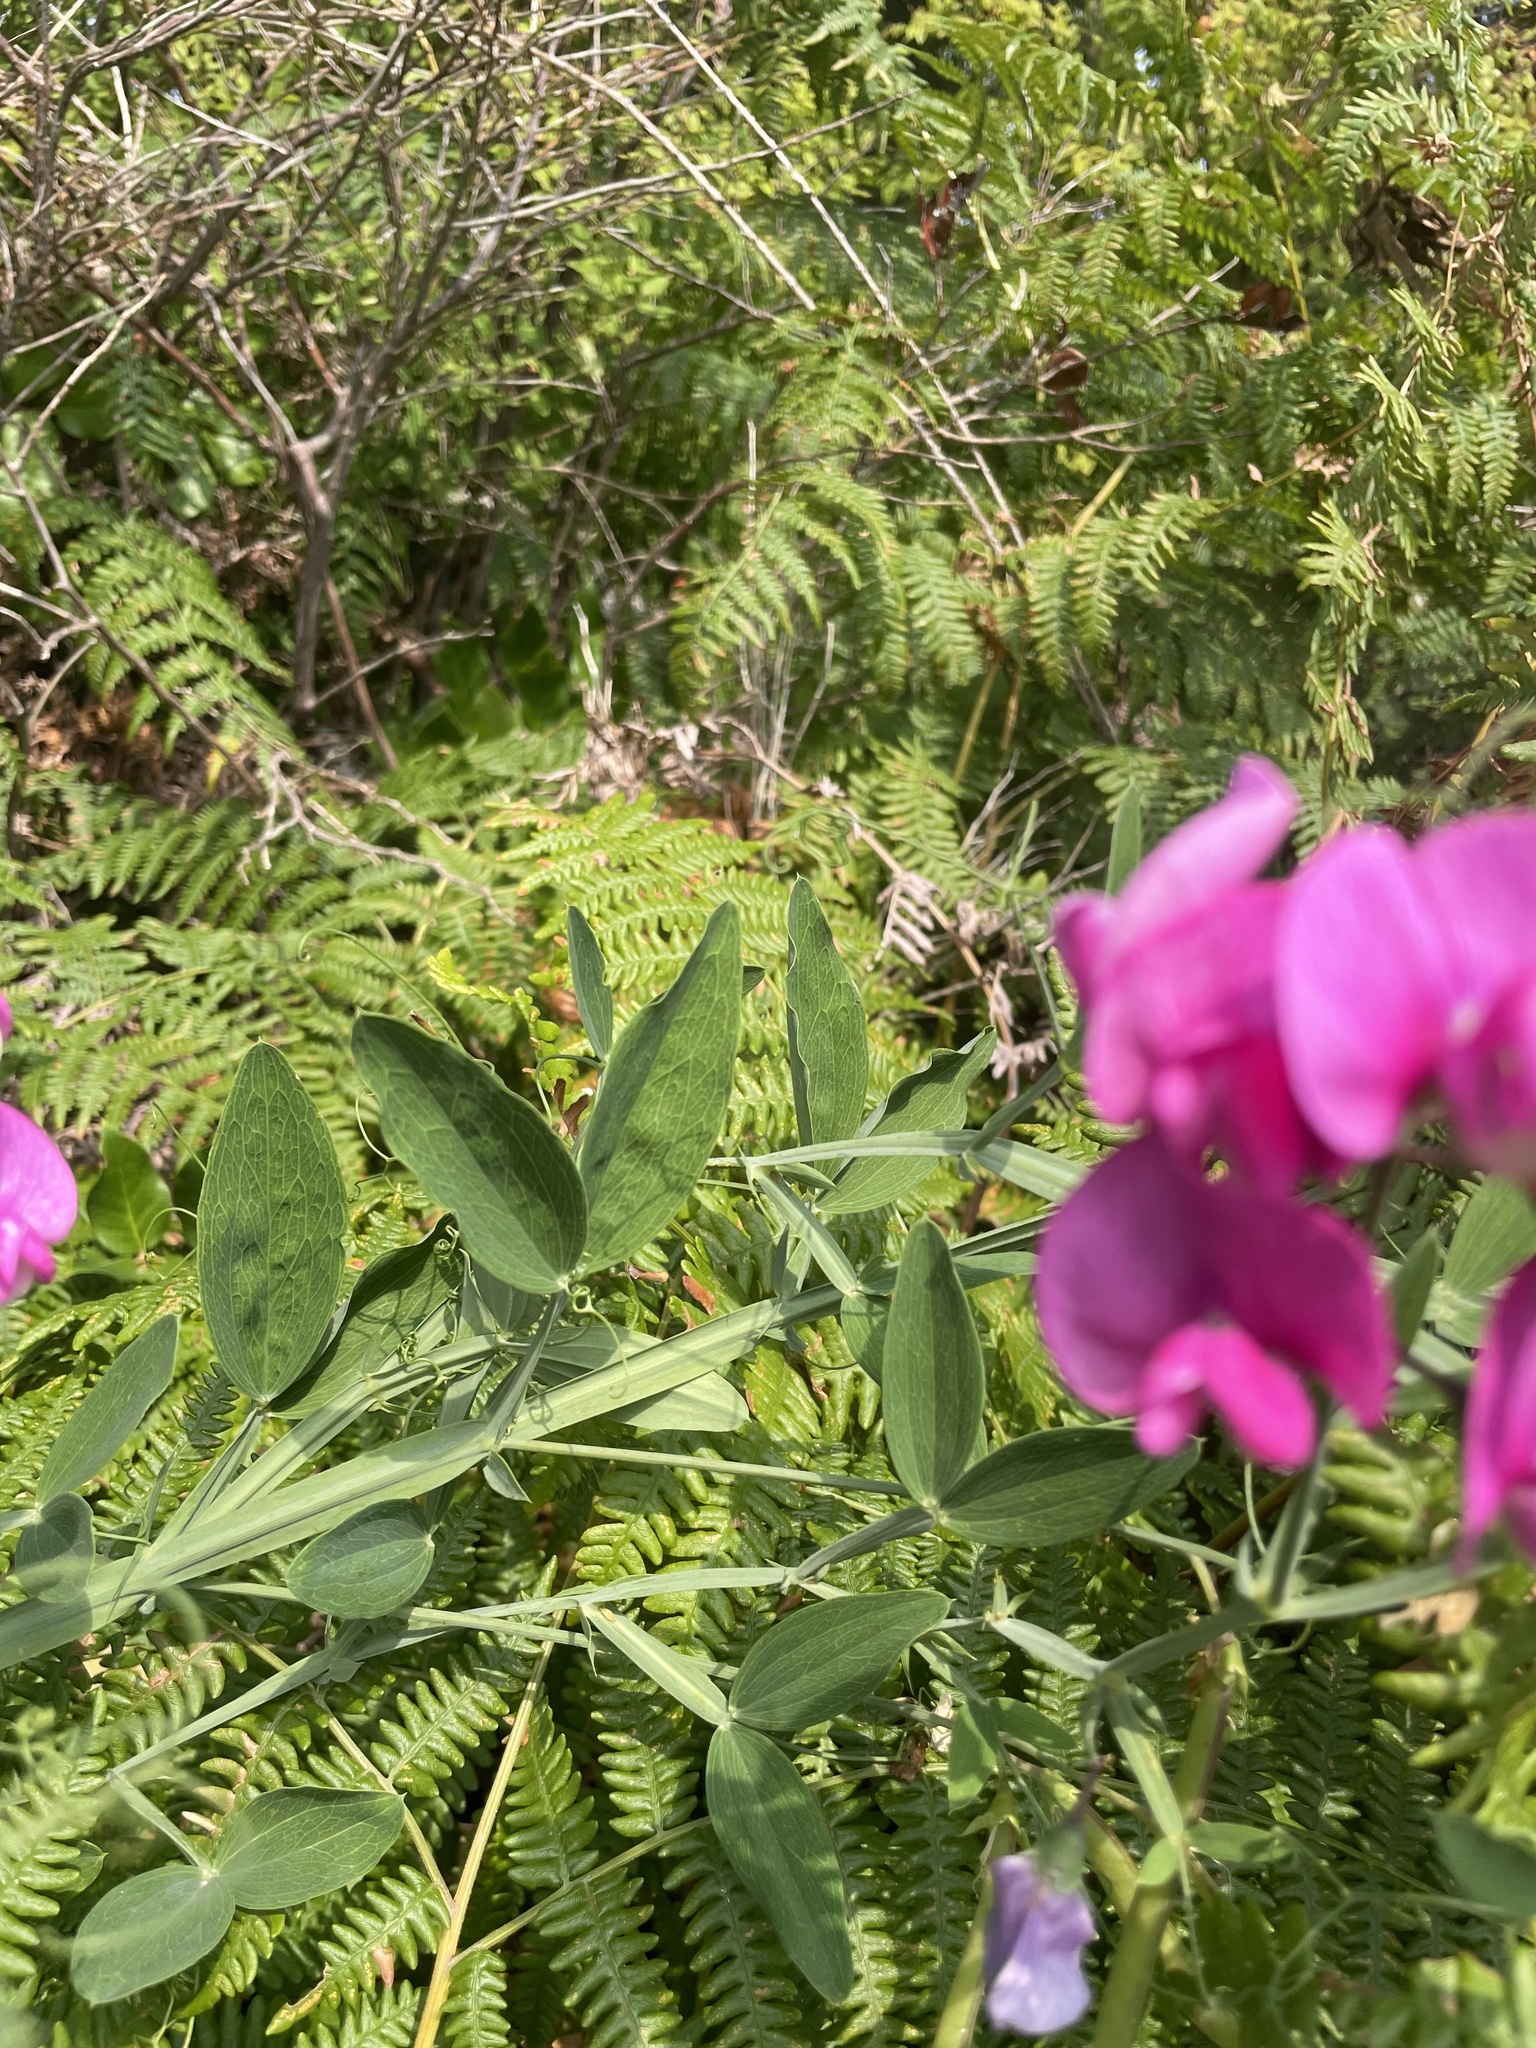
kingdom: Plantae
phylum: Tracheophyta
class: Magnoliopsida
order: Fabales
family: Fabaceae
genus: Lathyrus
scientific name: Lathyrus latifolius
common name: Perennial pea
